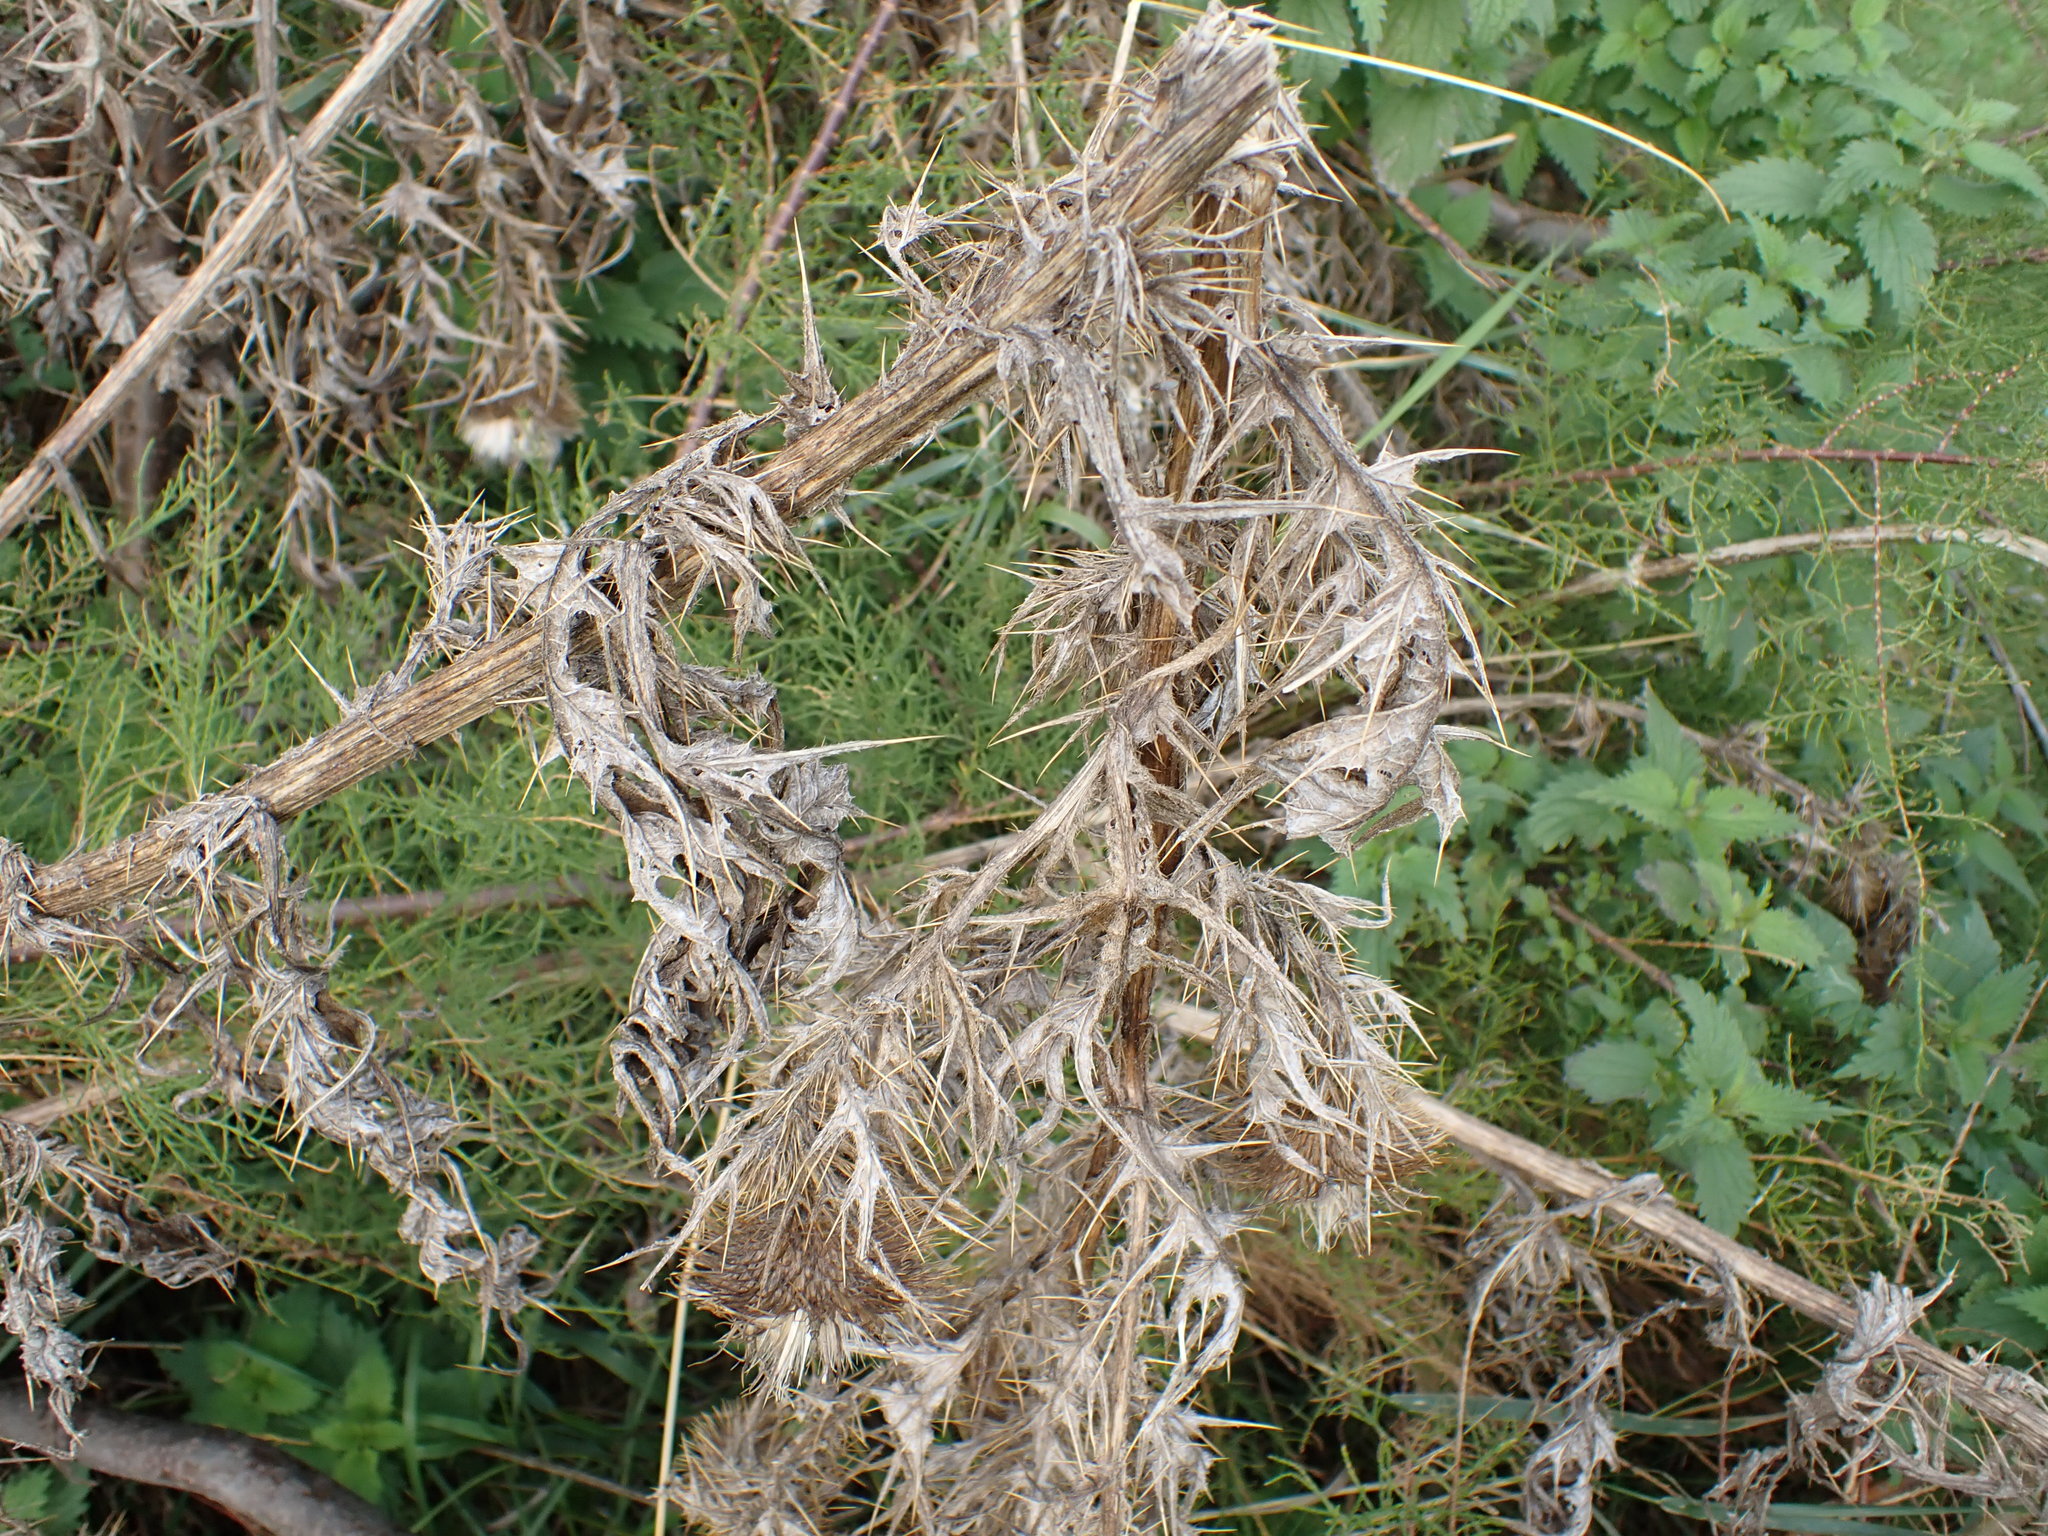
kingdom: Plantae
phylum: Tracheophyta
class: Magnoliopsida
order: Asterales
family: Asteraceae
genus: Cirsium
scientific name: Cirsium vulgare
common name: Bull thistle
